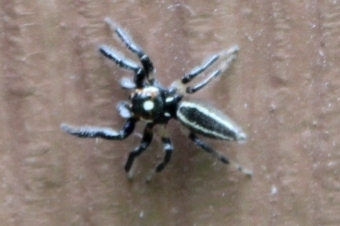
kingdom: Animalia
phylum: Arthropoda
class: Arachnida
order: Araneae
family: Salticidae
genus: Colonus
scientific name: Colonus sylvanus
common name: Jumping spiders
